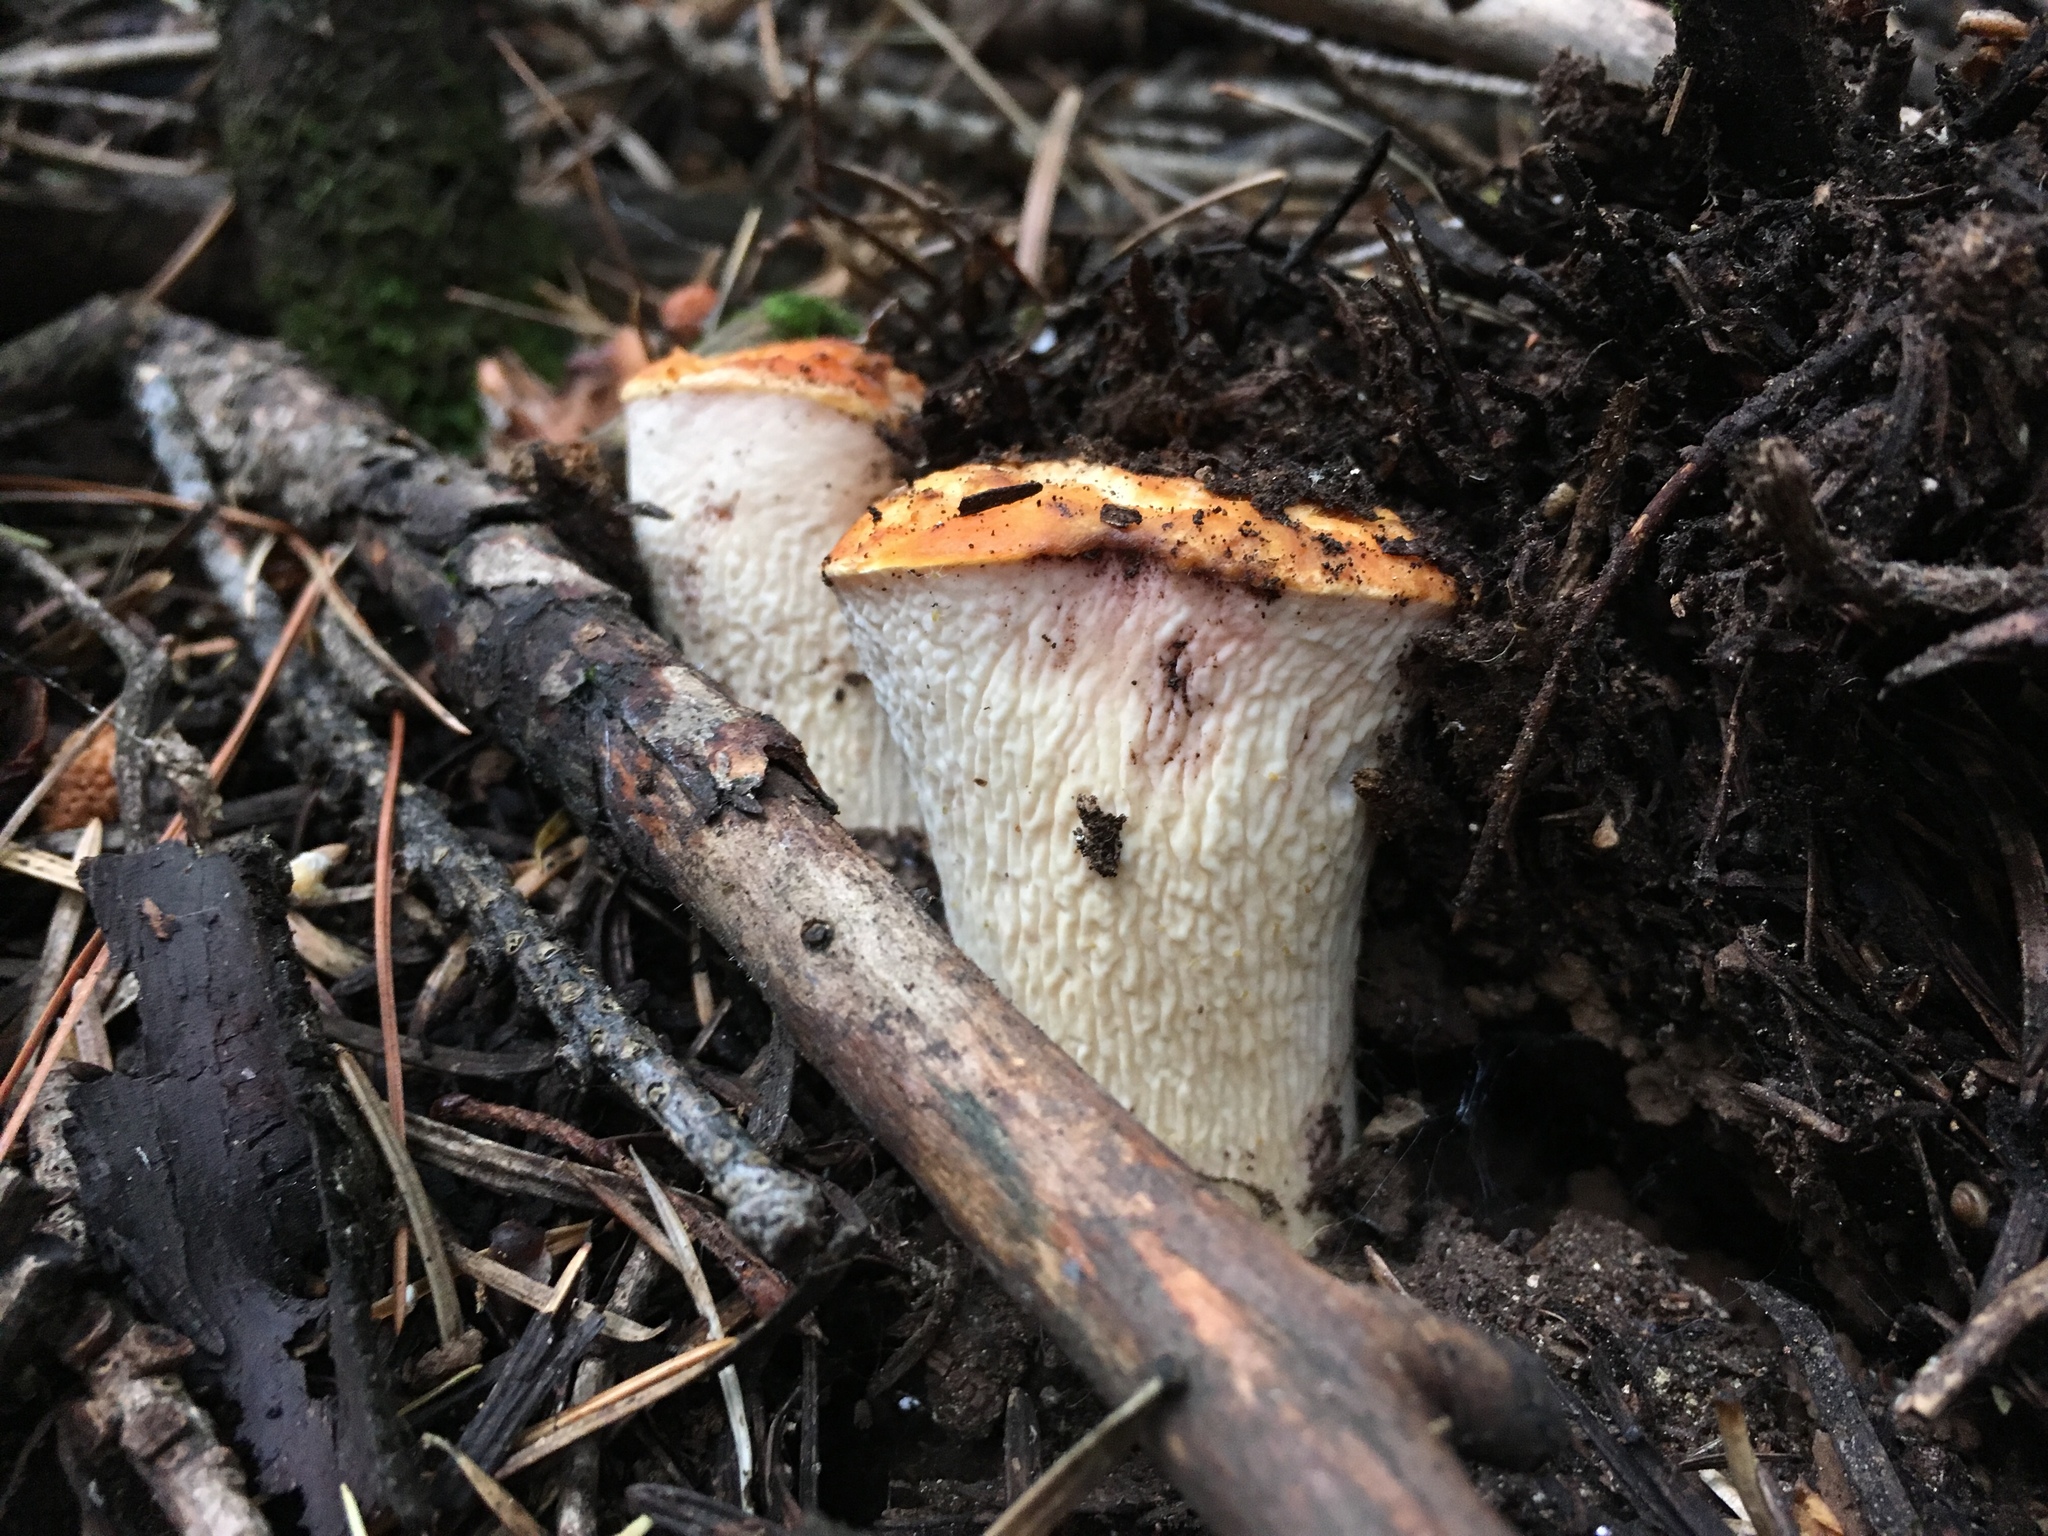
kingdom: Fungi
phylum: Basidiomycota
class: Agaricomycetes
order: Gomphales
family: Gomphaceae
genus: Turbinellus
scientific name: Turbinellus floccosus
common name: Scaly chanterelle
